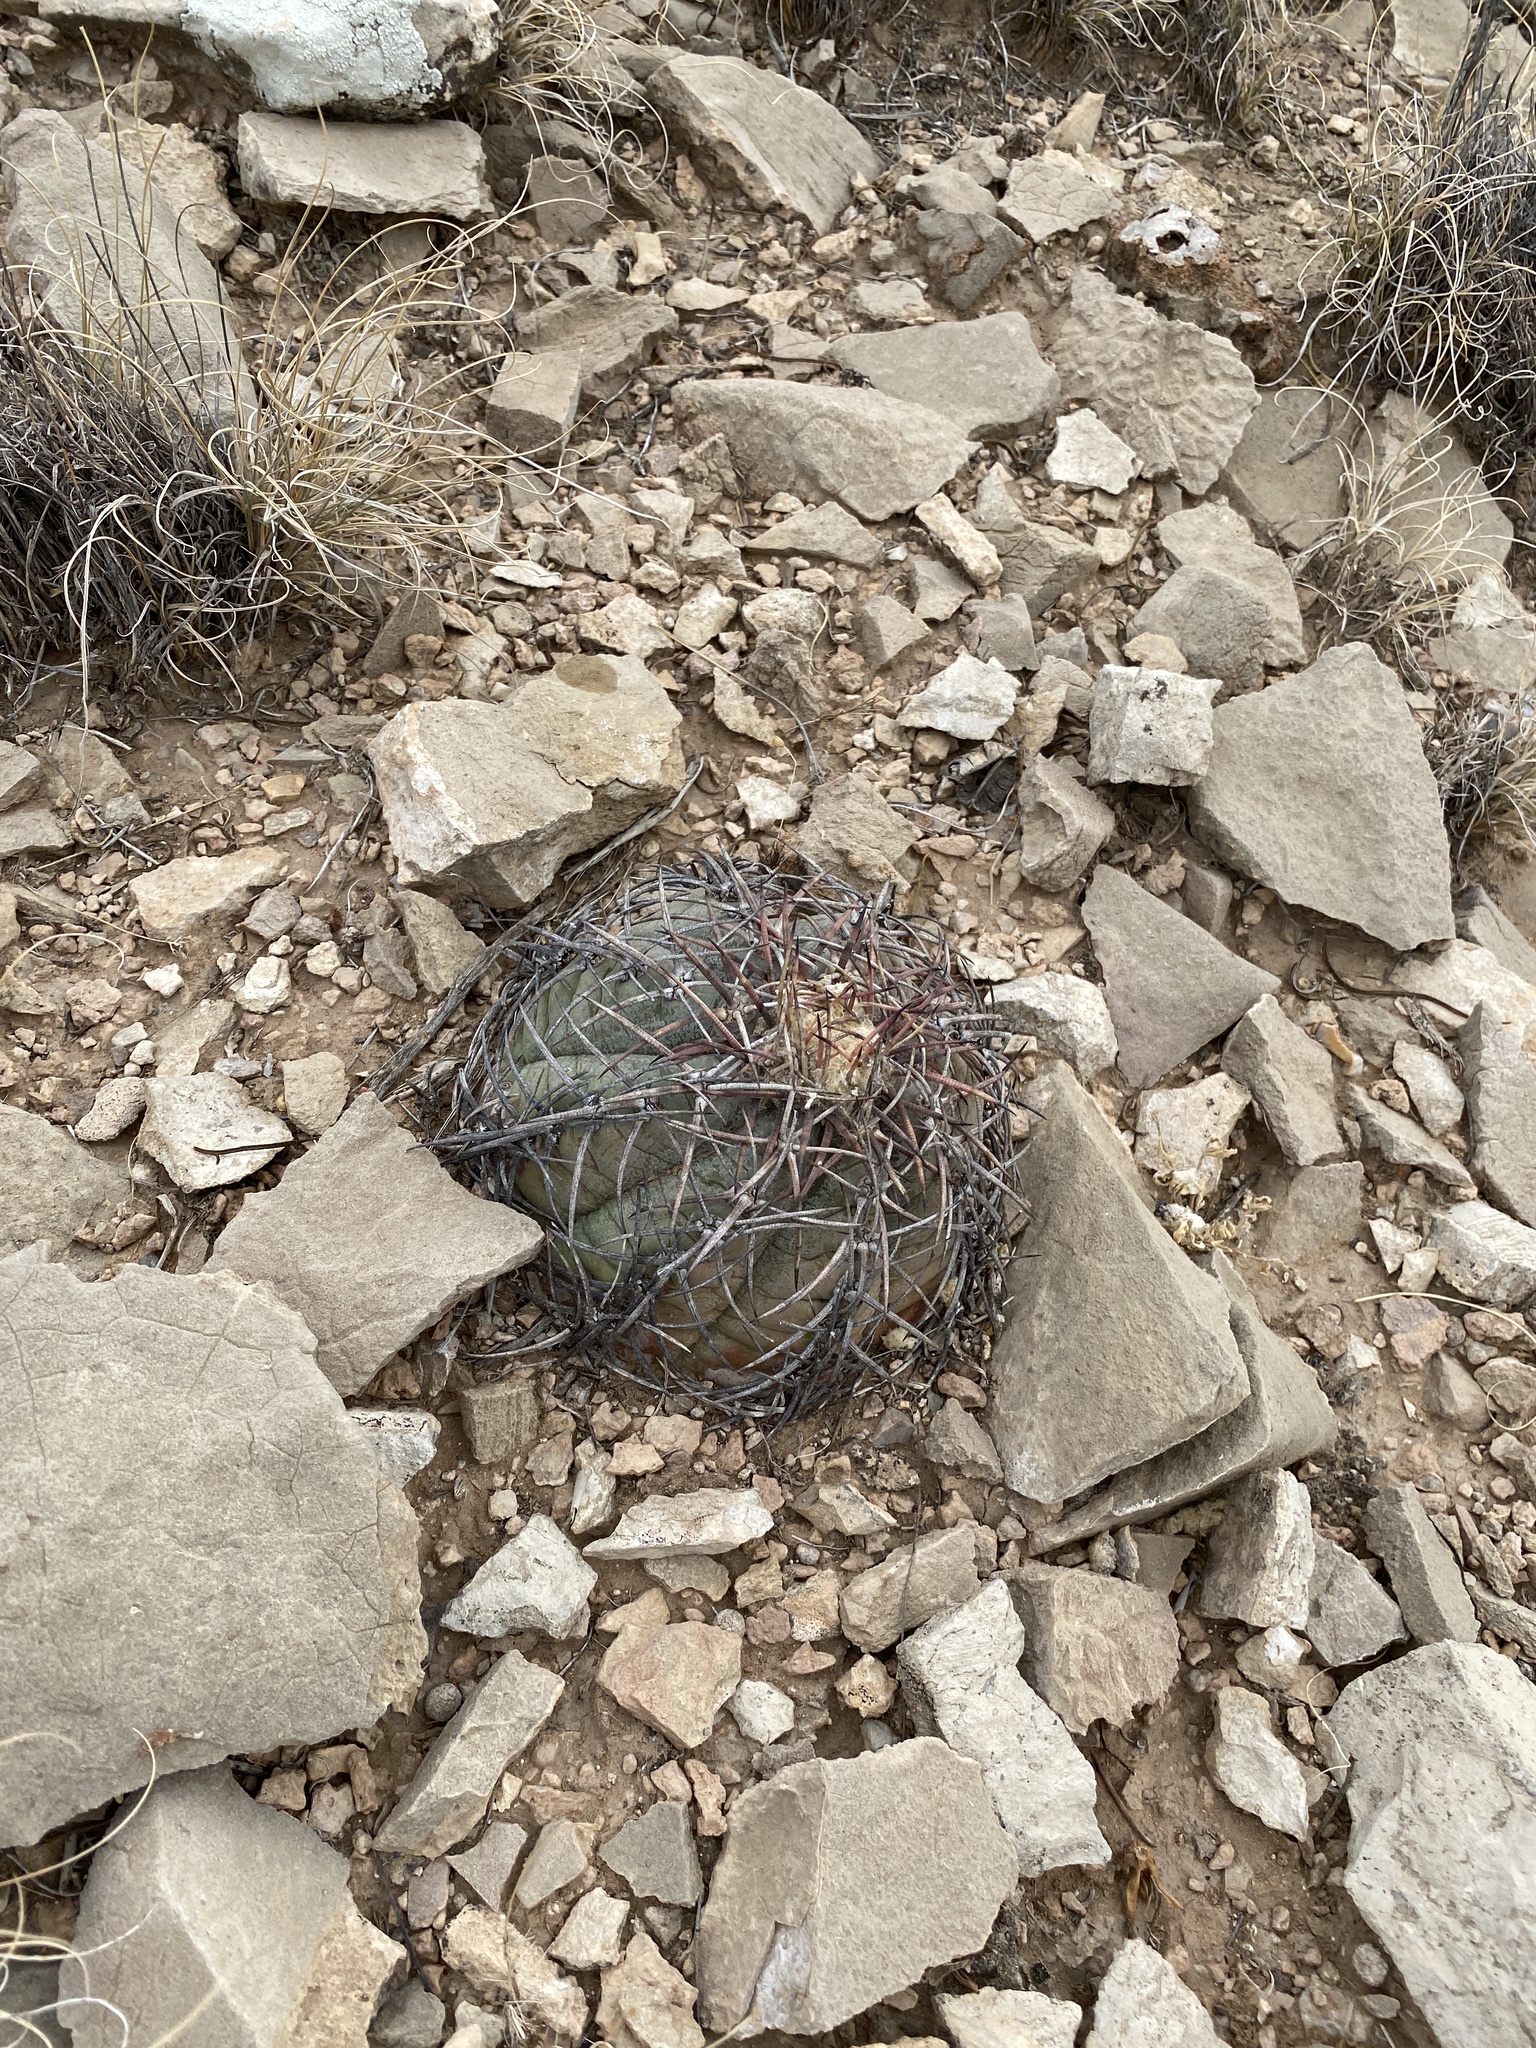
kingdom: Plantae
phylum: Tracheophyta
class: Magnoliopsida
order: Caryophyllales
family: Cactaceae
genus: Echinocactus
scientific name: Echinocactus horizonthalonius
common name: Devilshead
